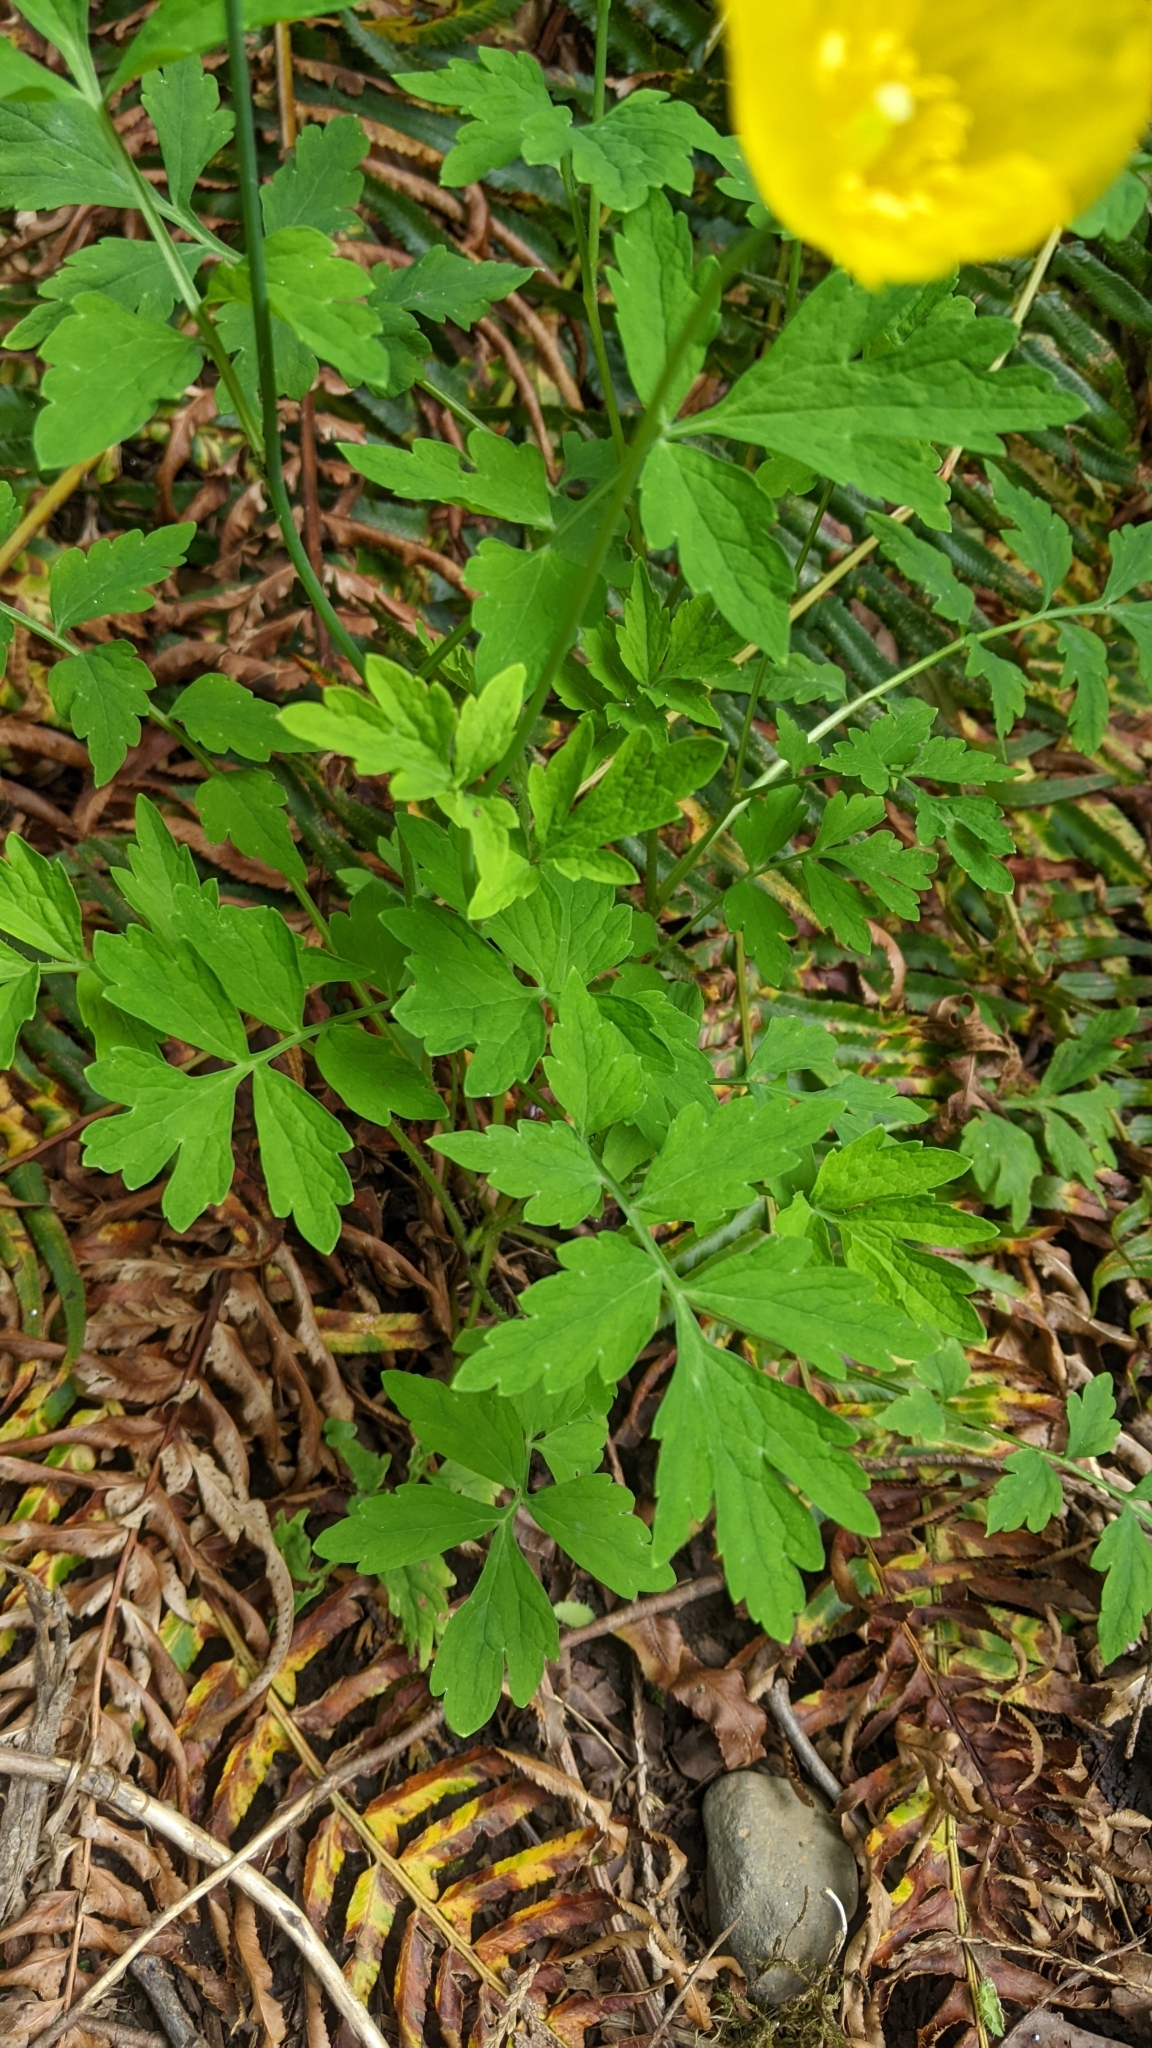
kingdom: Plantae
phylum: Tracheophyta
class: Magnoliopsida
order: Ranunculales
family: Papaveraceae
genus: Papaver
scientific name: Papaver cambricum
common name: Poppy
